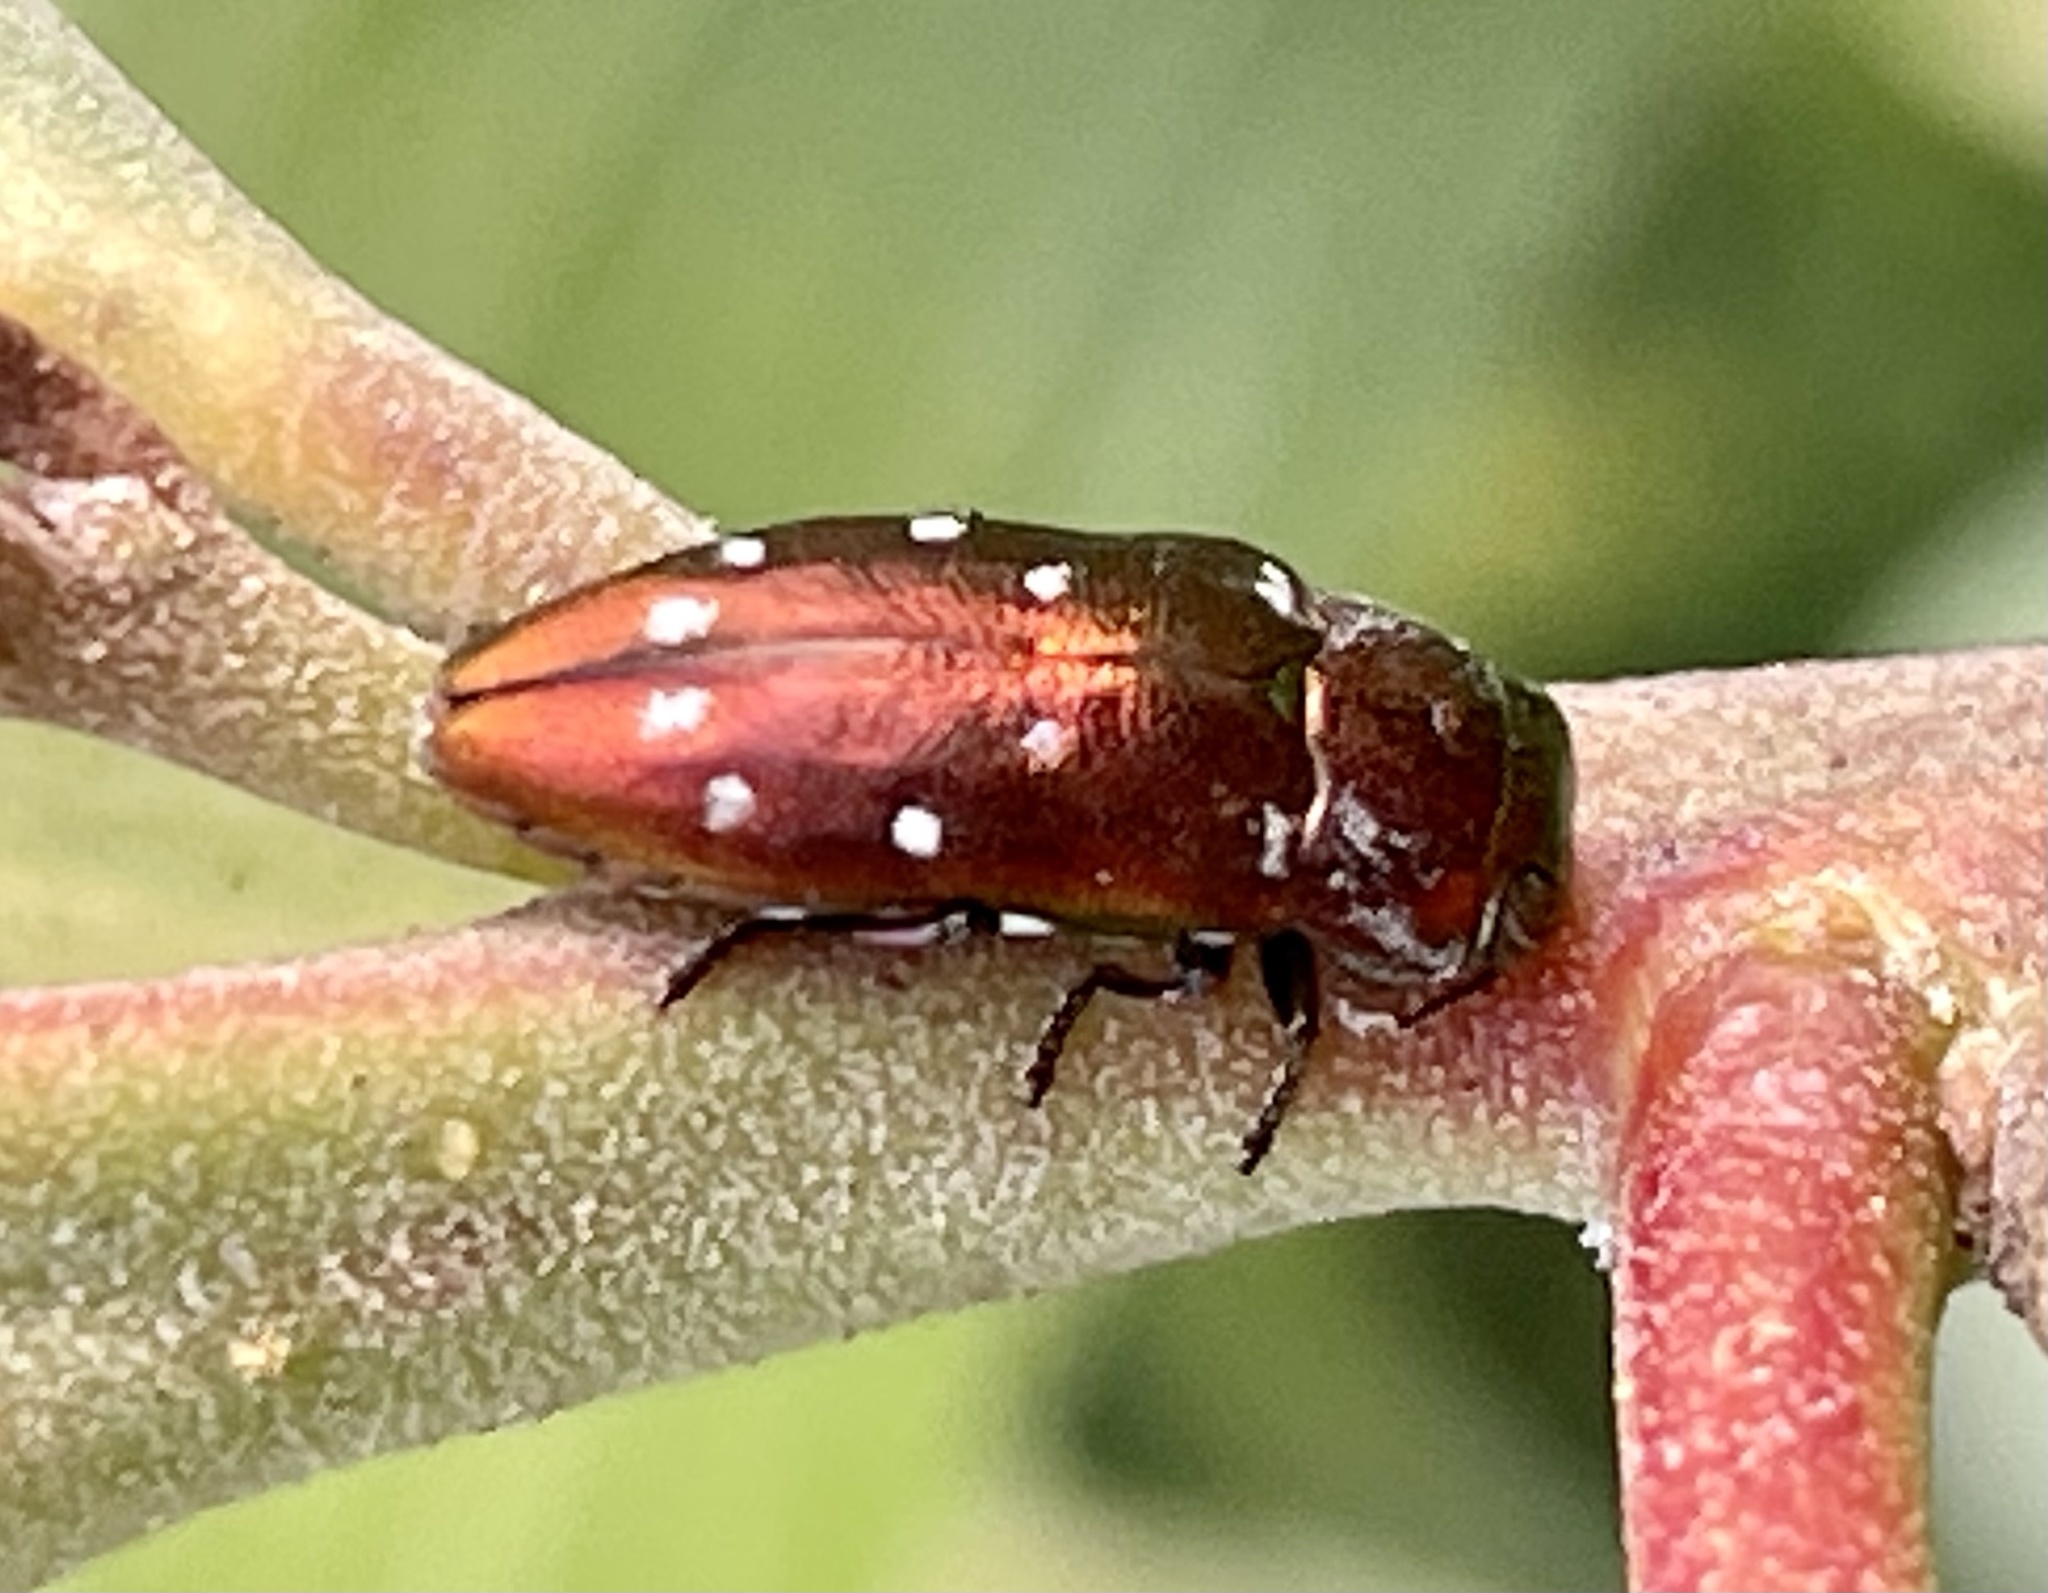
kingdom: Animalia
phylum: Arthropoda
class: Insecta
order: Coleoptera
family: Buprestidae
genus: Diphucrania
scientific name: Diphucrania albosparsa
